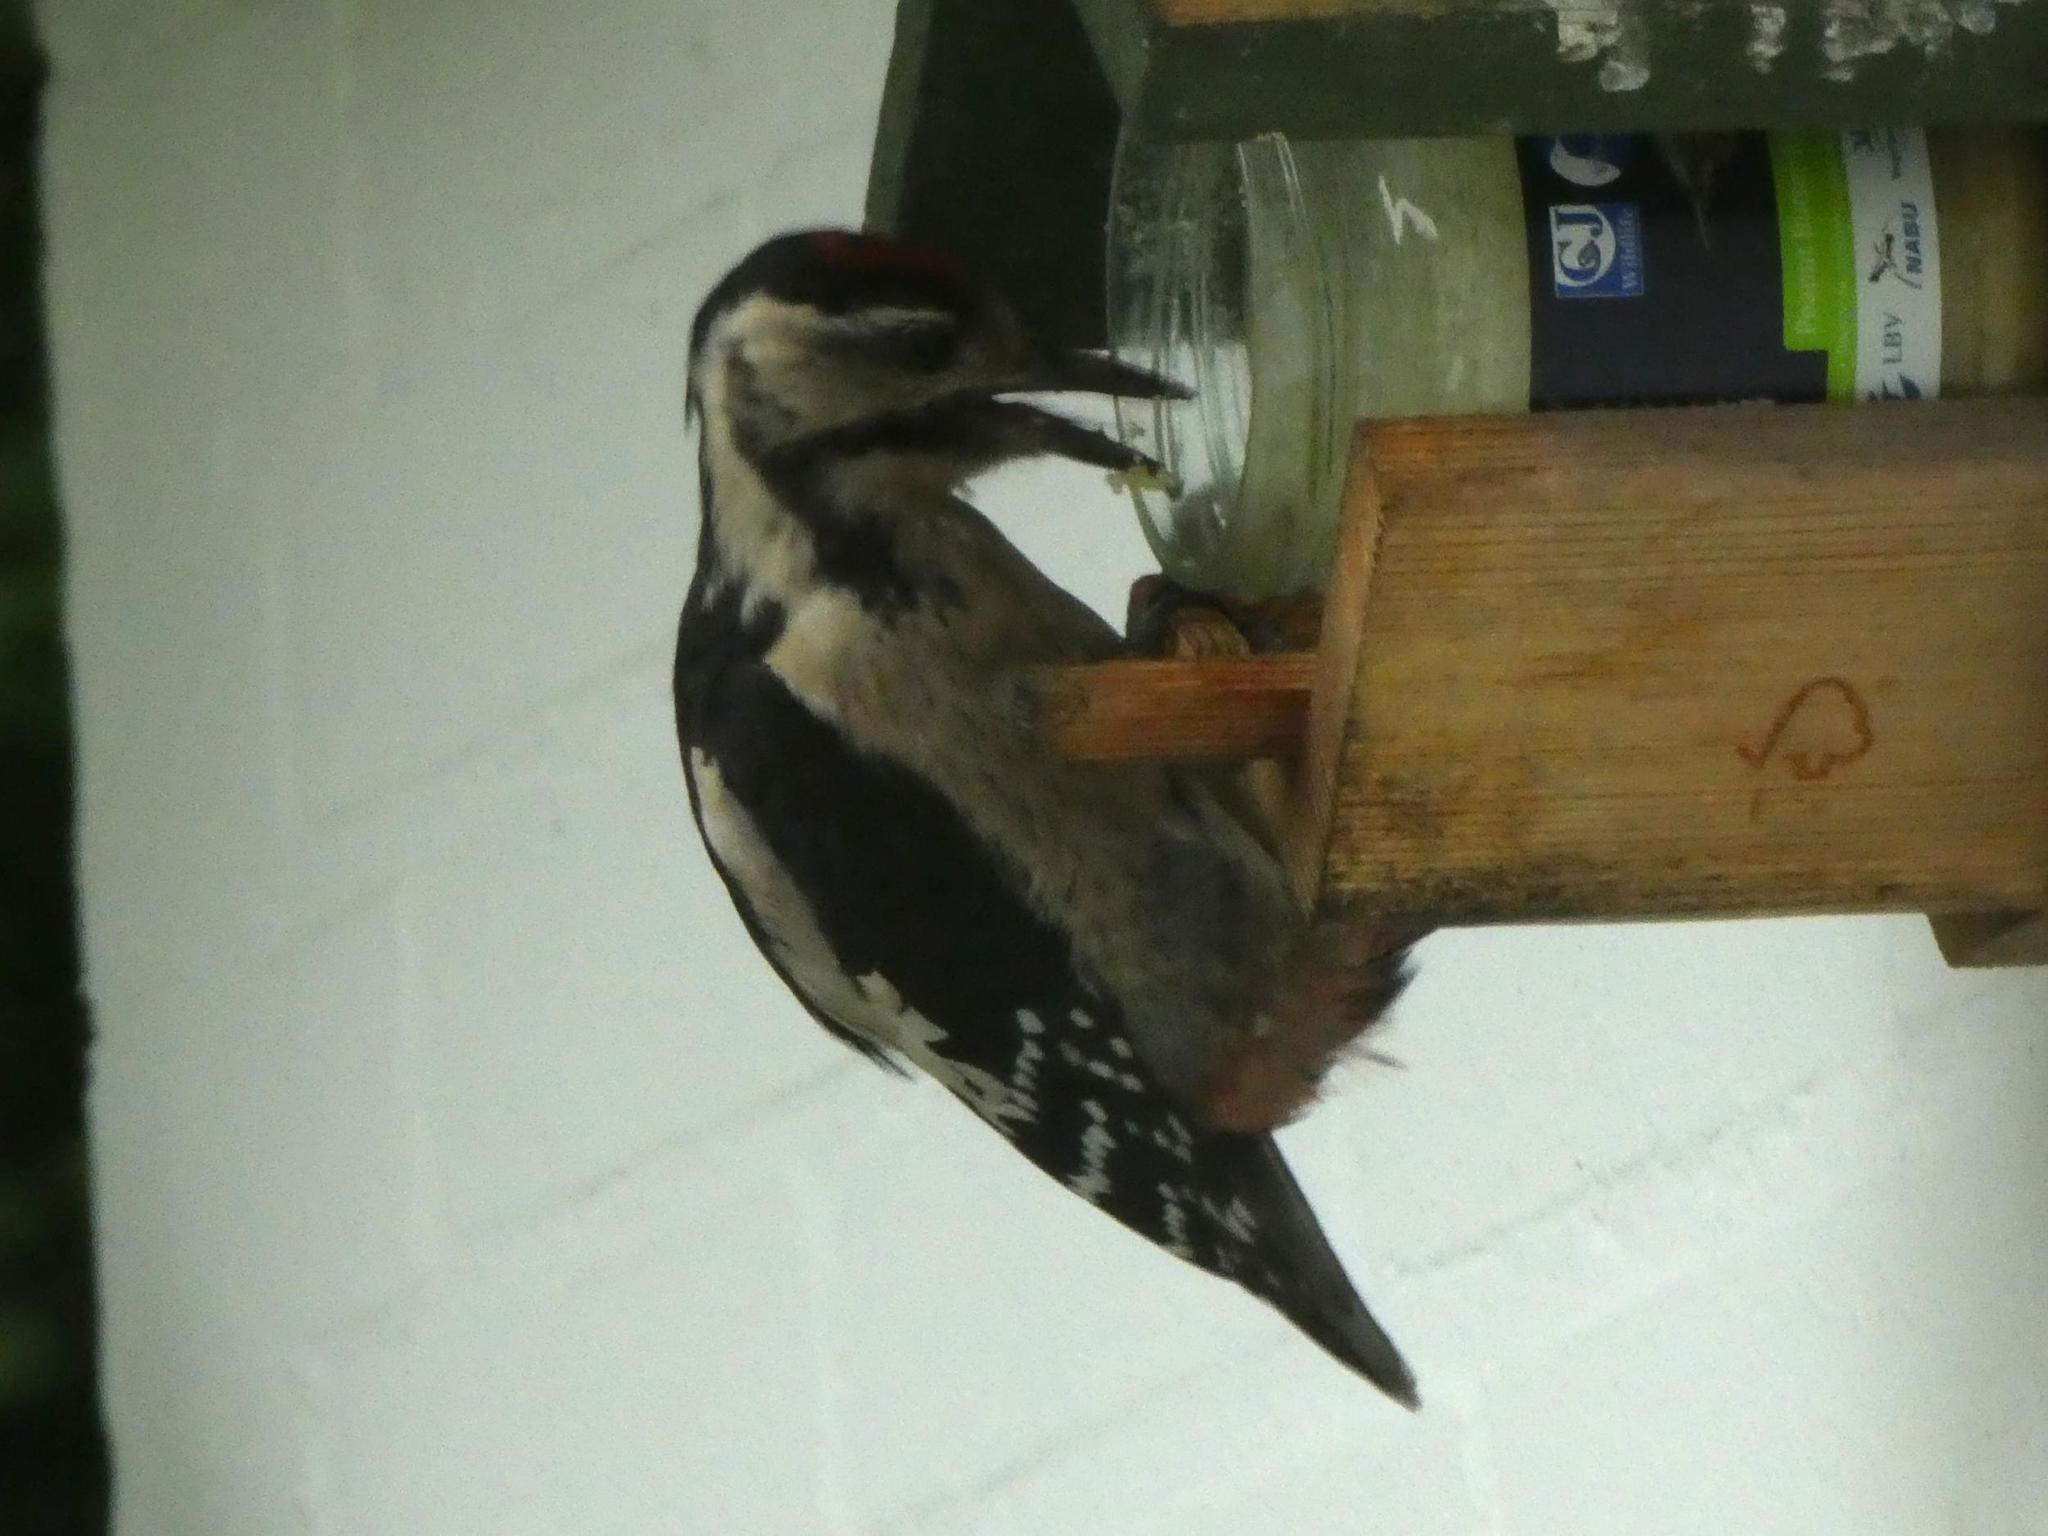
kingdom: Animalia
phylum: Chordata
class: Aves
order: Piciformes
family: Picidae
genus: Dendrocopos
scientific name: Dendrocopos major
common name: Great spotted woodpecker
